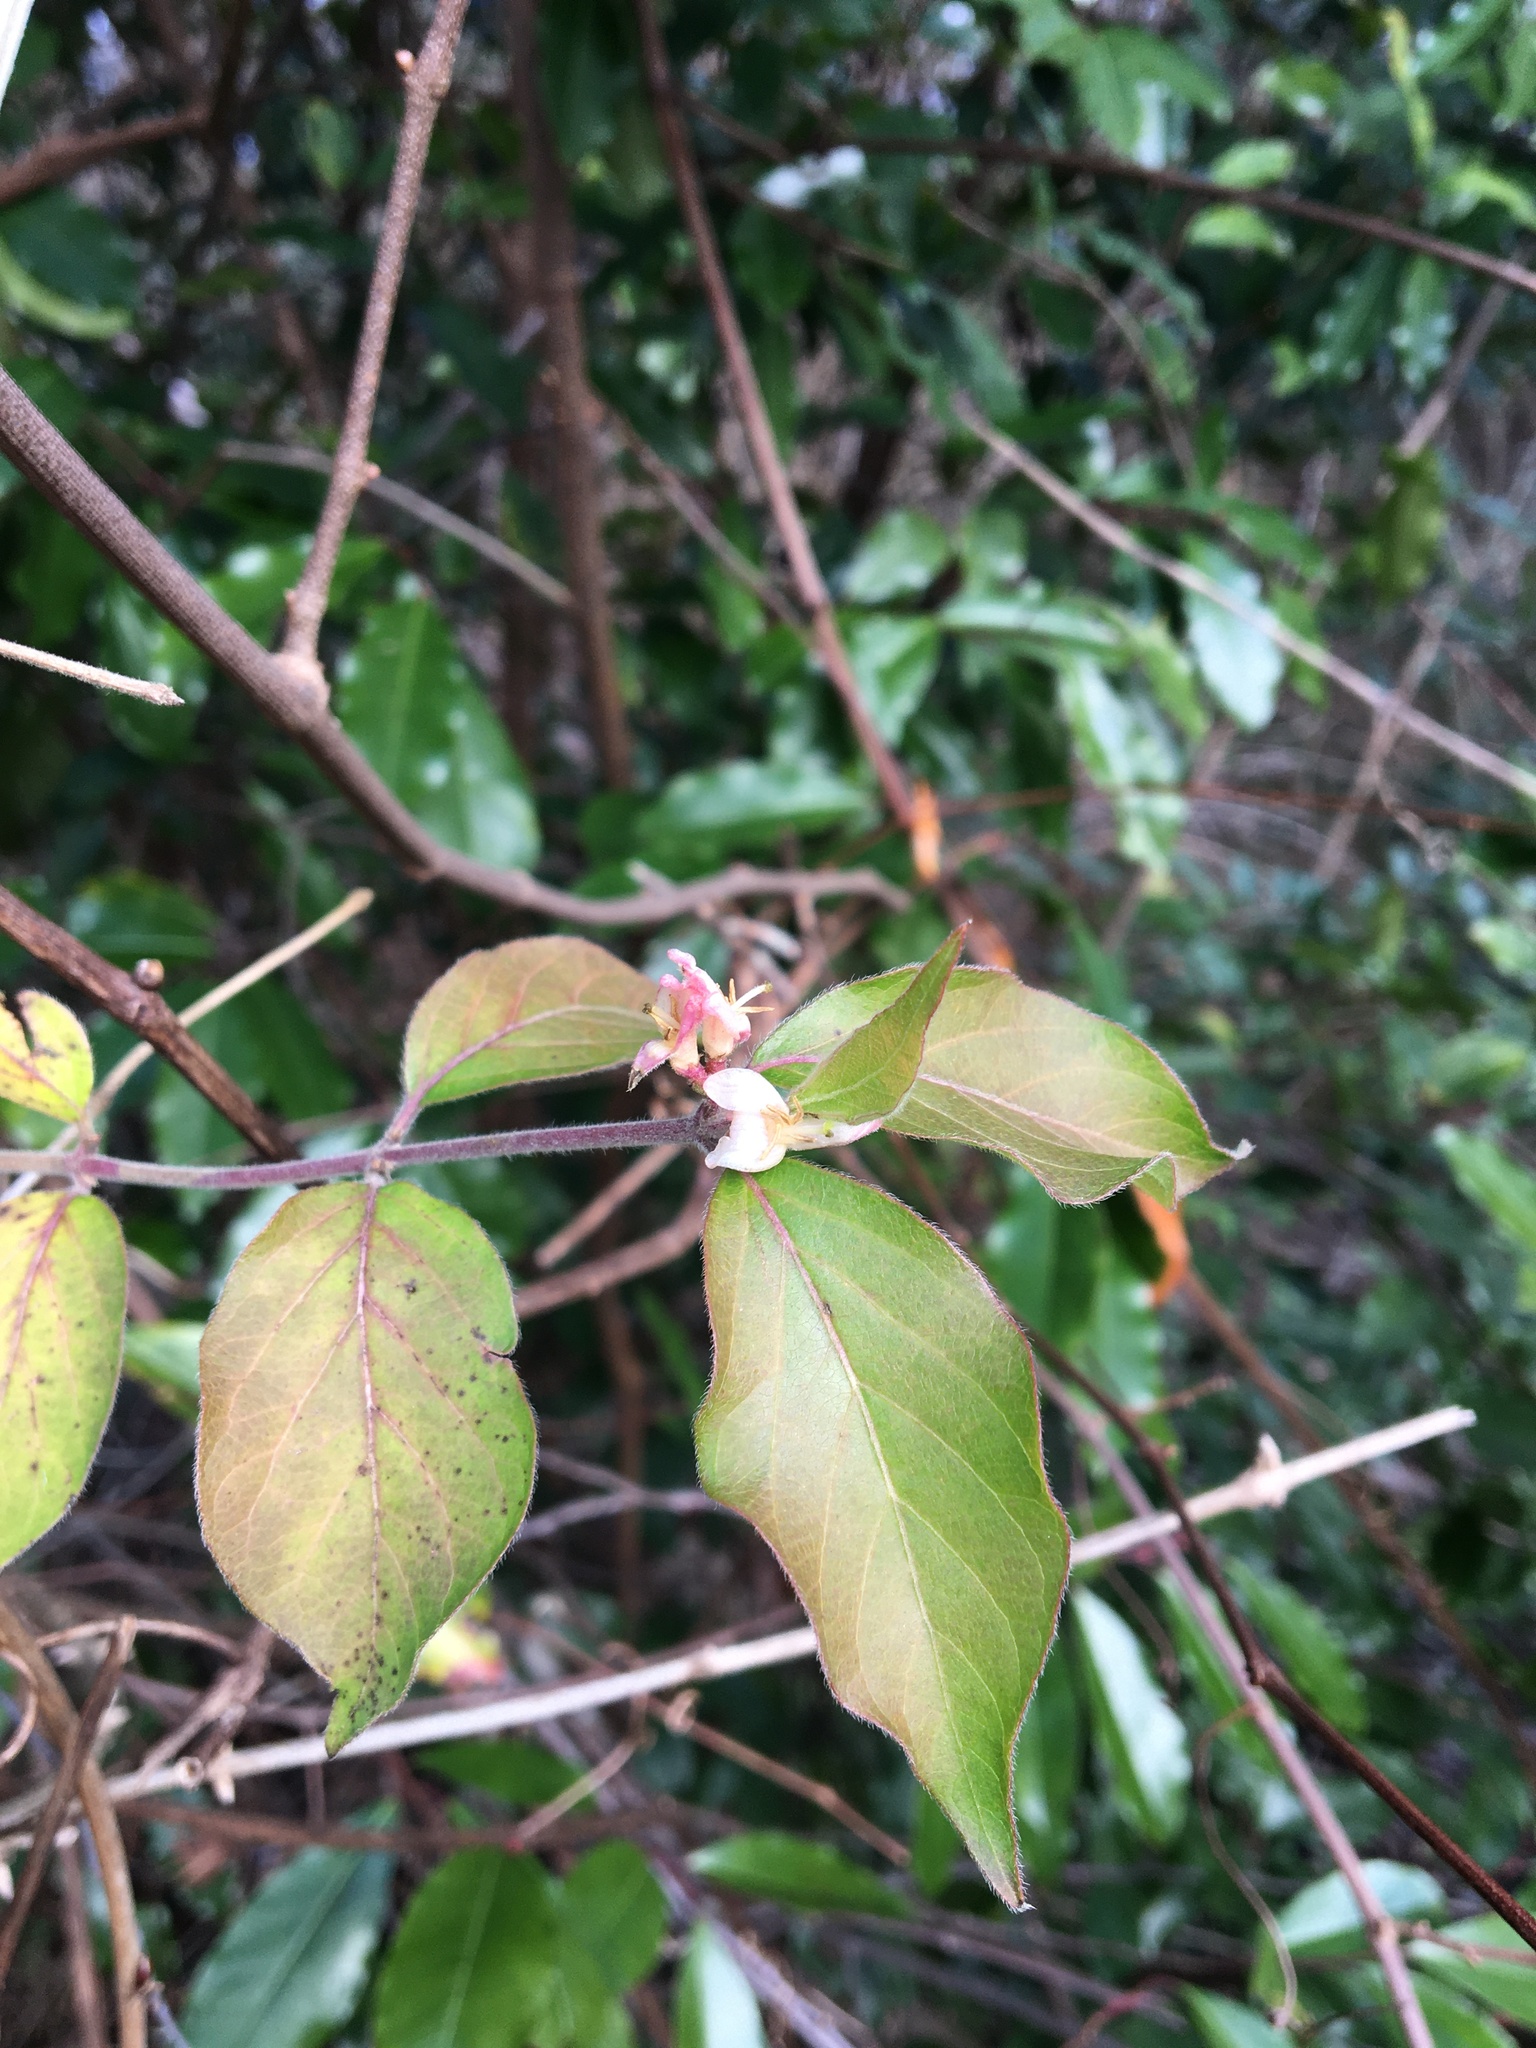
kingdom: Plantae
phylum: Tracheophyta
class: Magnoliopsida
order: Dipsacales
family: Caprifoliaceae
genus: Lonicera
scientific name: Lonicera maackii
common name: Amur honeysuckle
